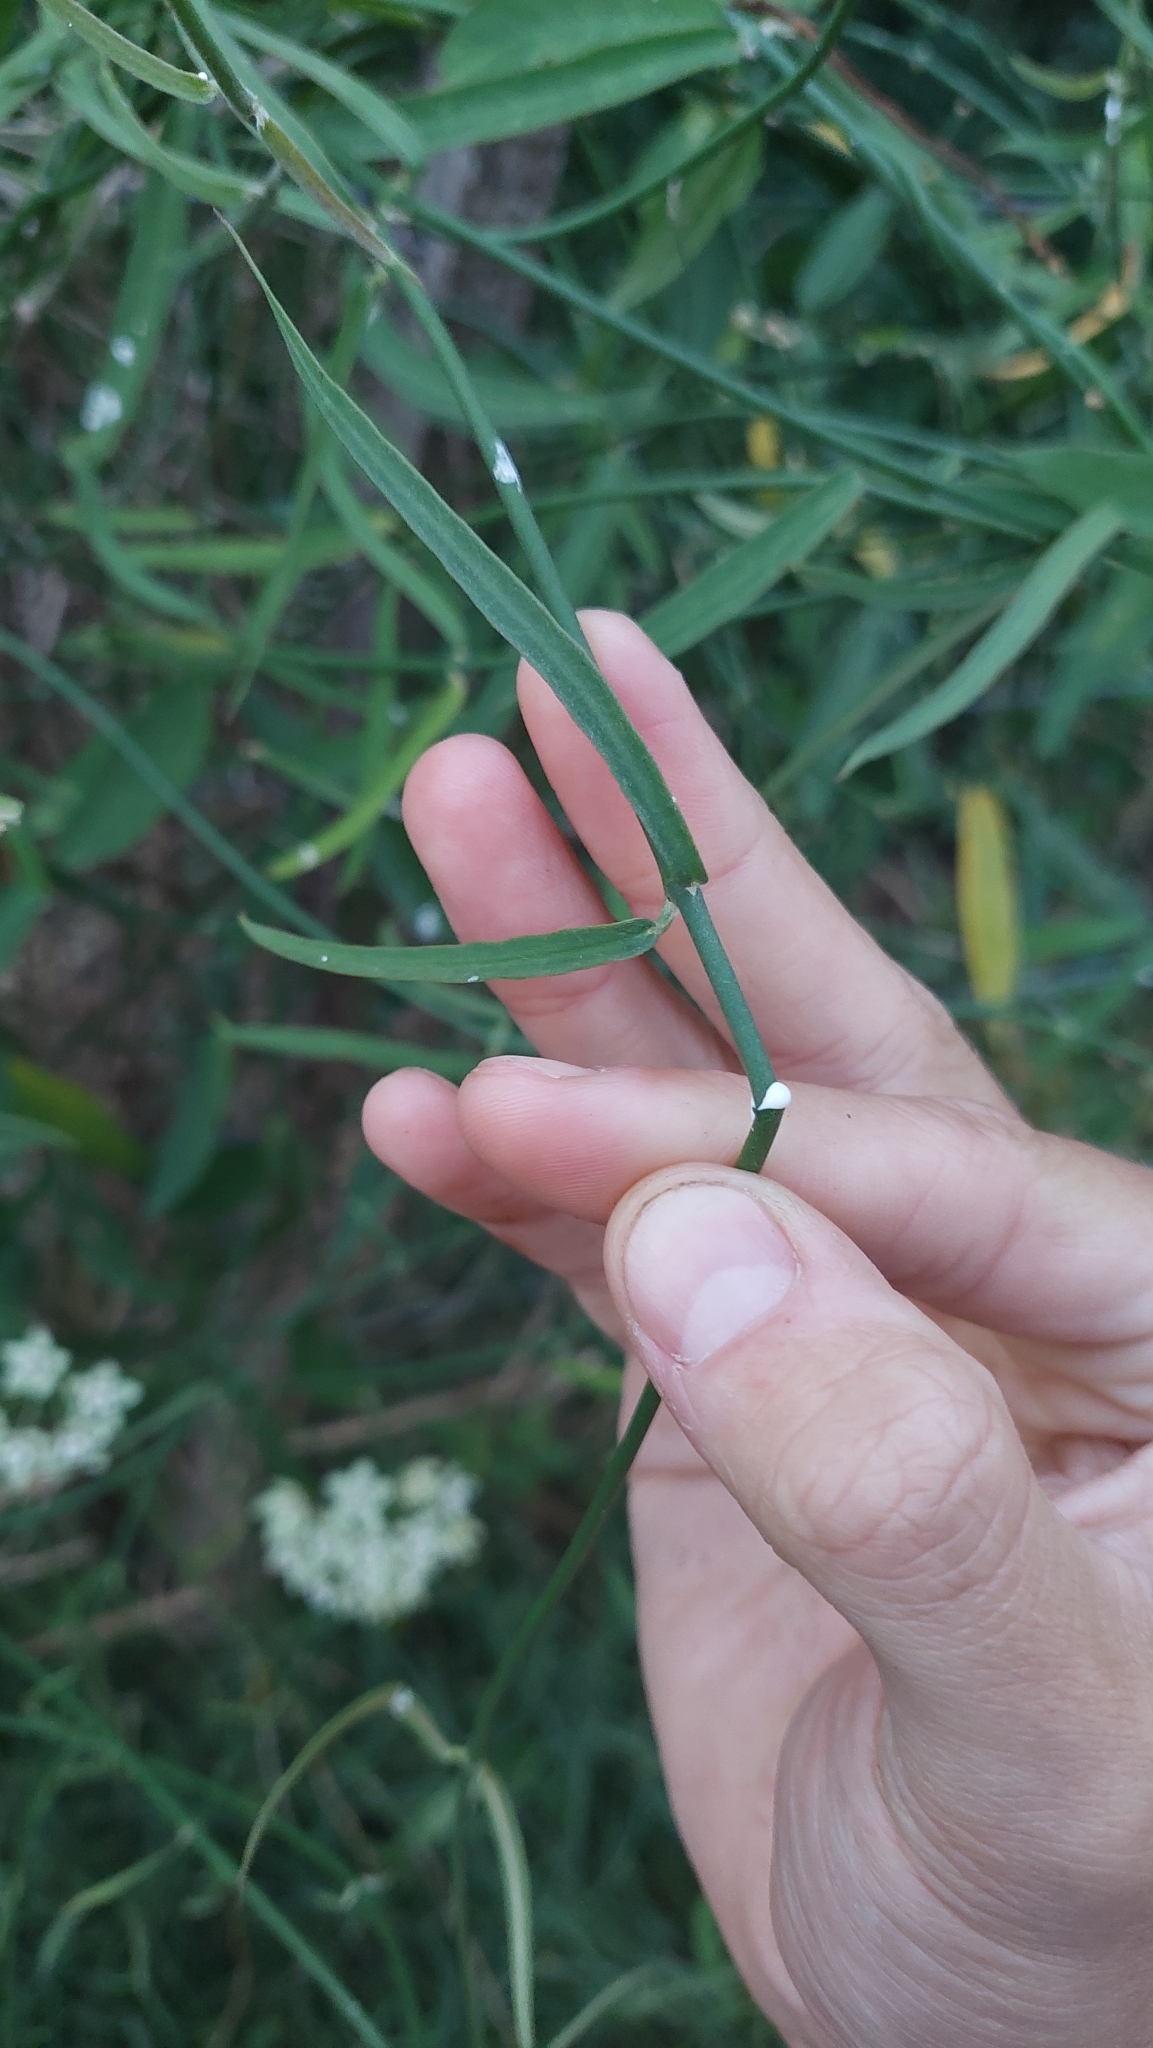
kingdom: Plantae
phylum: Tracheophyta
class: Magnoliopsida
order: Gentianales
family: Apocynaceae
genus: Funastrum
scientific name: Funastrum clausum
